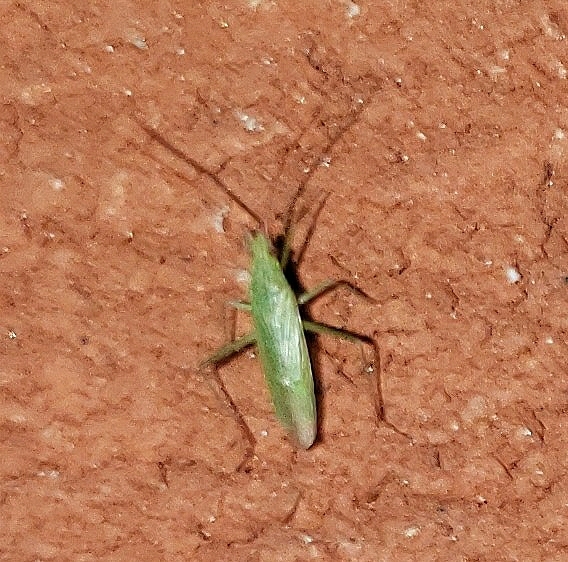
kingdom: Animalia
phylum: Arthropoda
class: Insecta
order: Hemiptera
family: Miridae
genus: Trigonotylus
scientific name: Trigonotylus caelestialium
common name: Rice leaf bug
